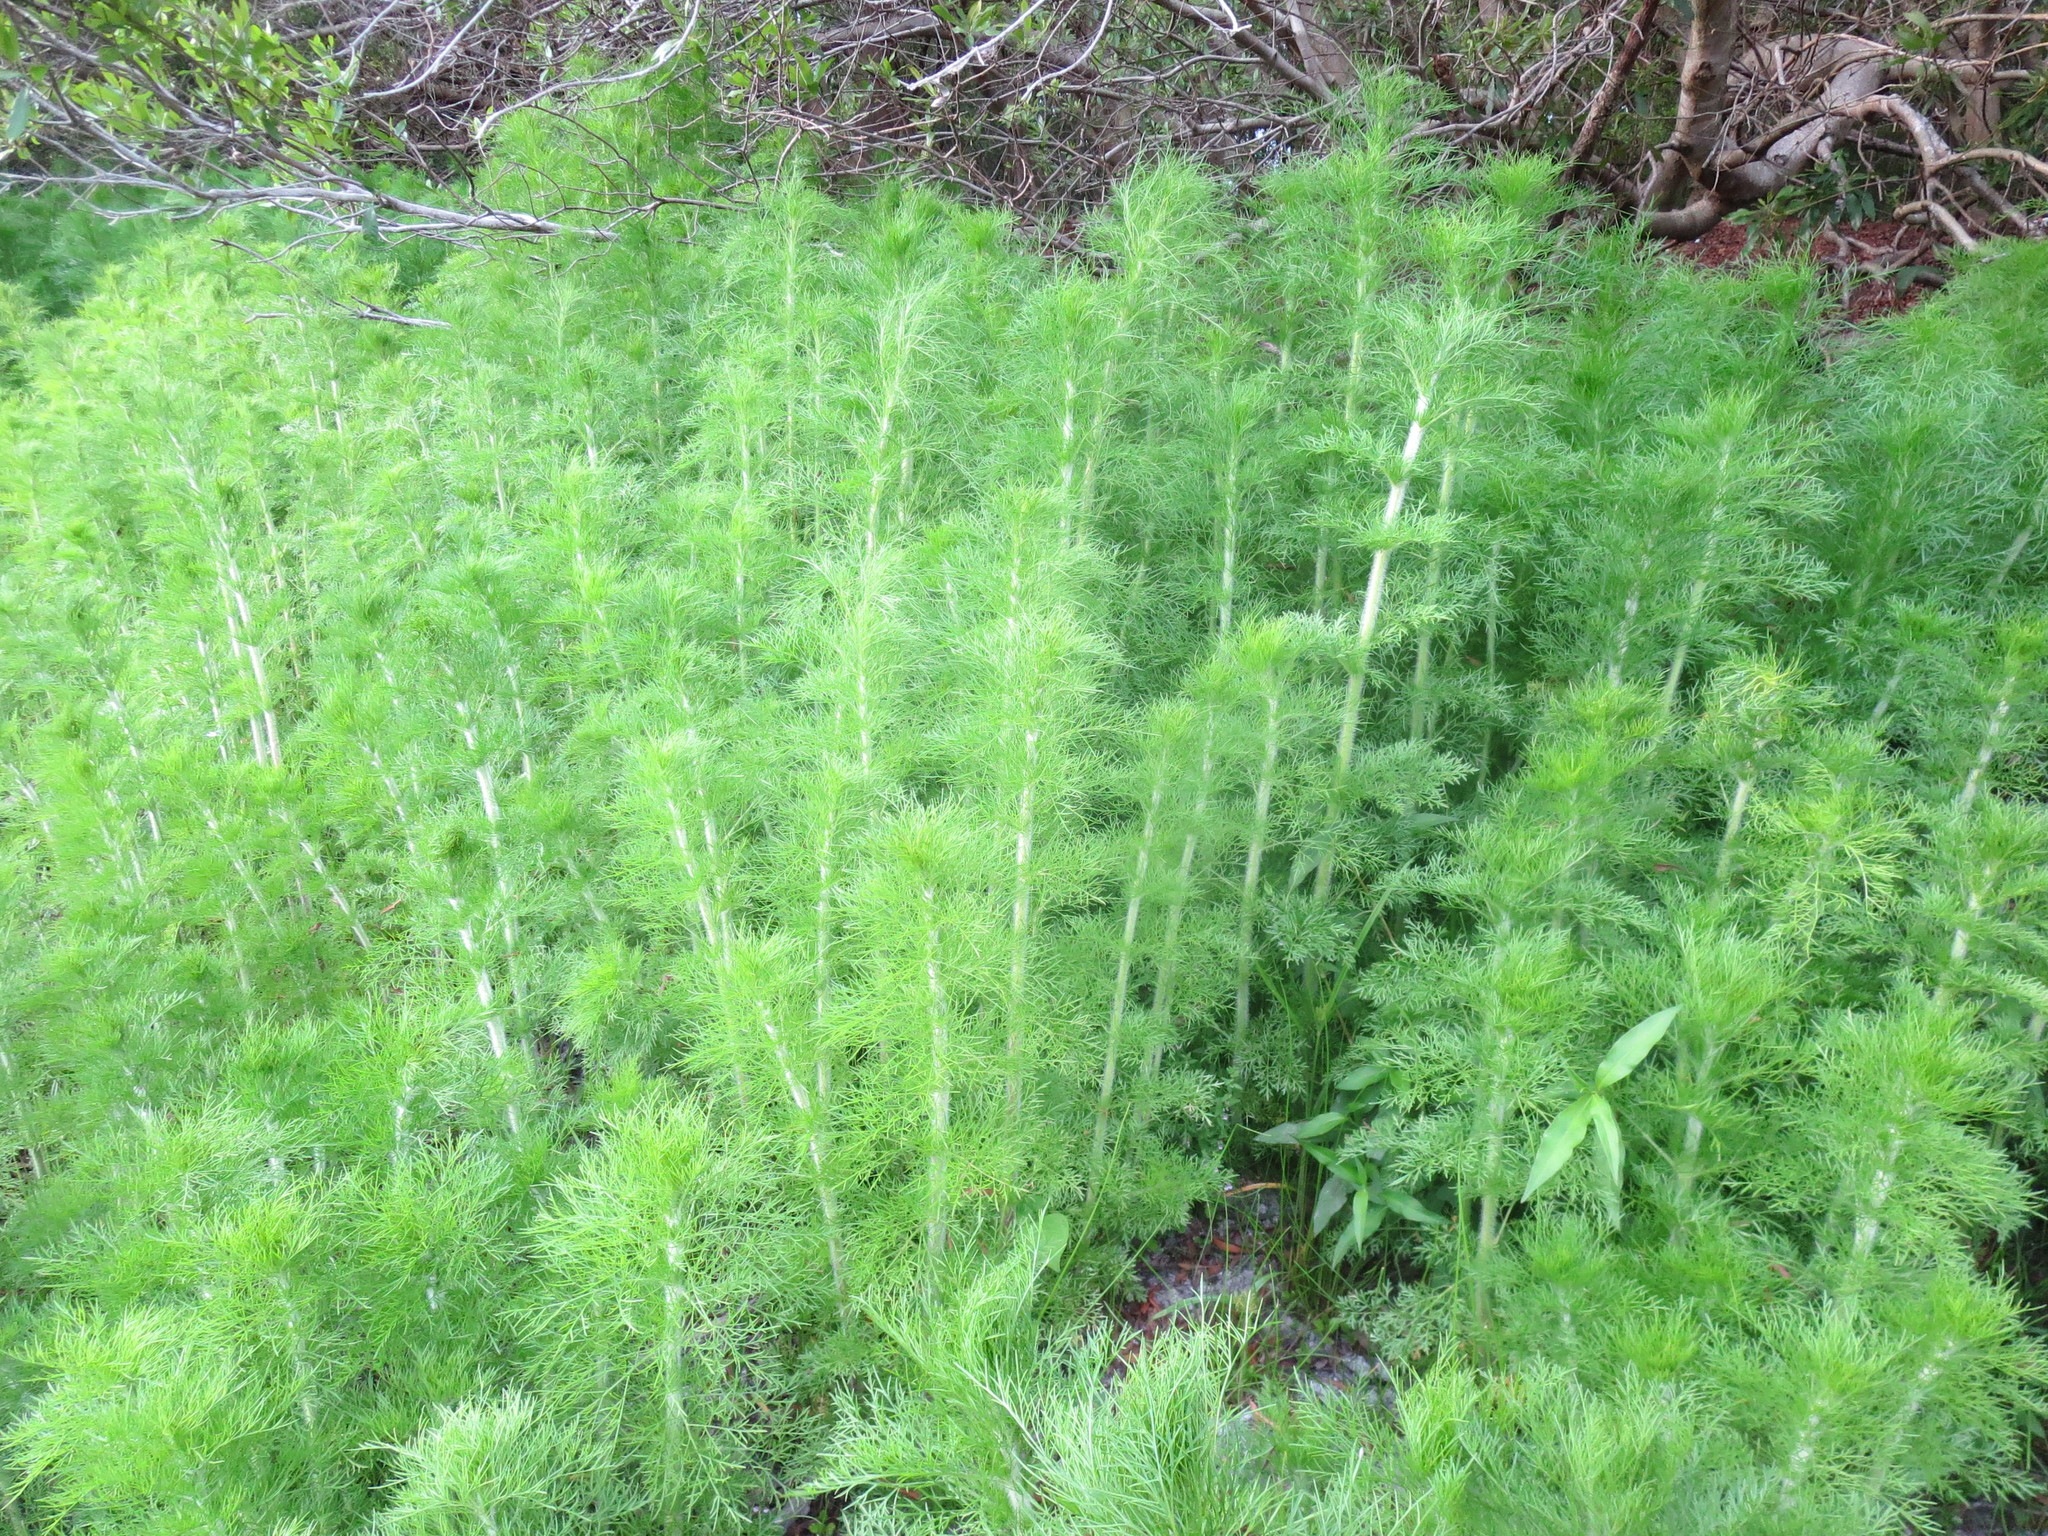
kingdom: Plantae
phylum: Tracheophyta
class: Magnoliopsida
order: Asterales
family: Asteraceae
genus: Eupatorium
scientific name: Eupatorium capillifolium
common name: Dog-fennel
